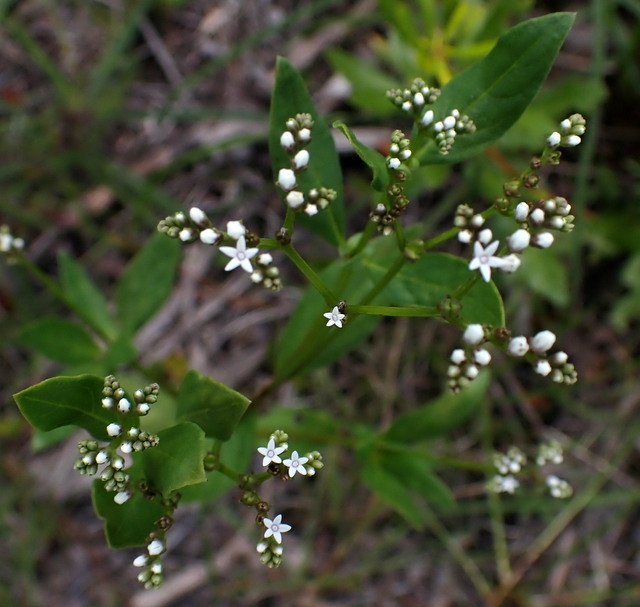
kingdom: Plantae
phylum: Tracheophyta
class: Magnoliopsida
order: Gentianales
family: Loganiaceae
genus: Mitreola
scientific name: Mitreola petiolata
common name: Lax hornpod
